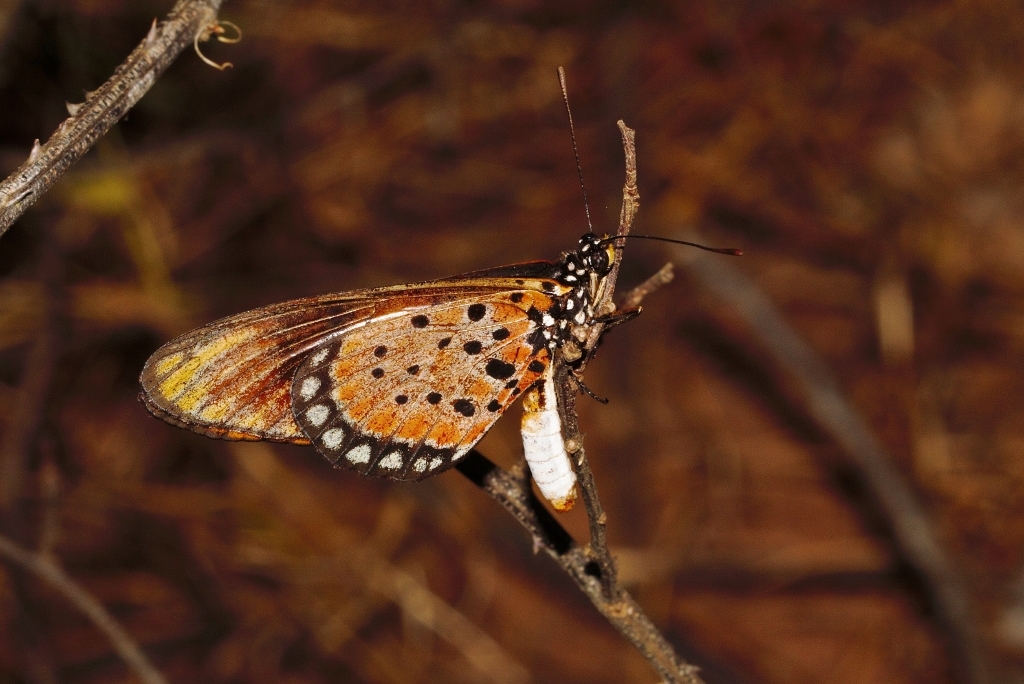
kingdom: Animalia
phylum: Arthropoda
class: Insecta
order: Lepidoptera
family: Nymphalidae
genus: Stephenia
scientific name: Stephenia
